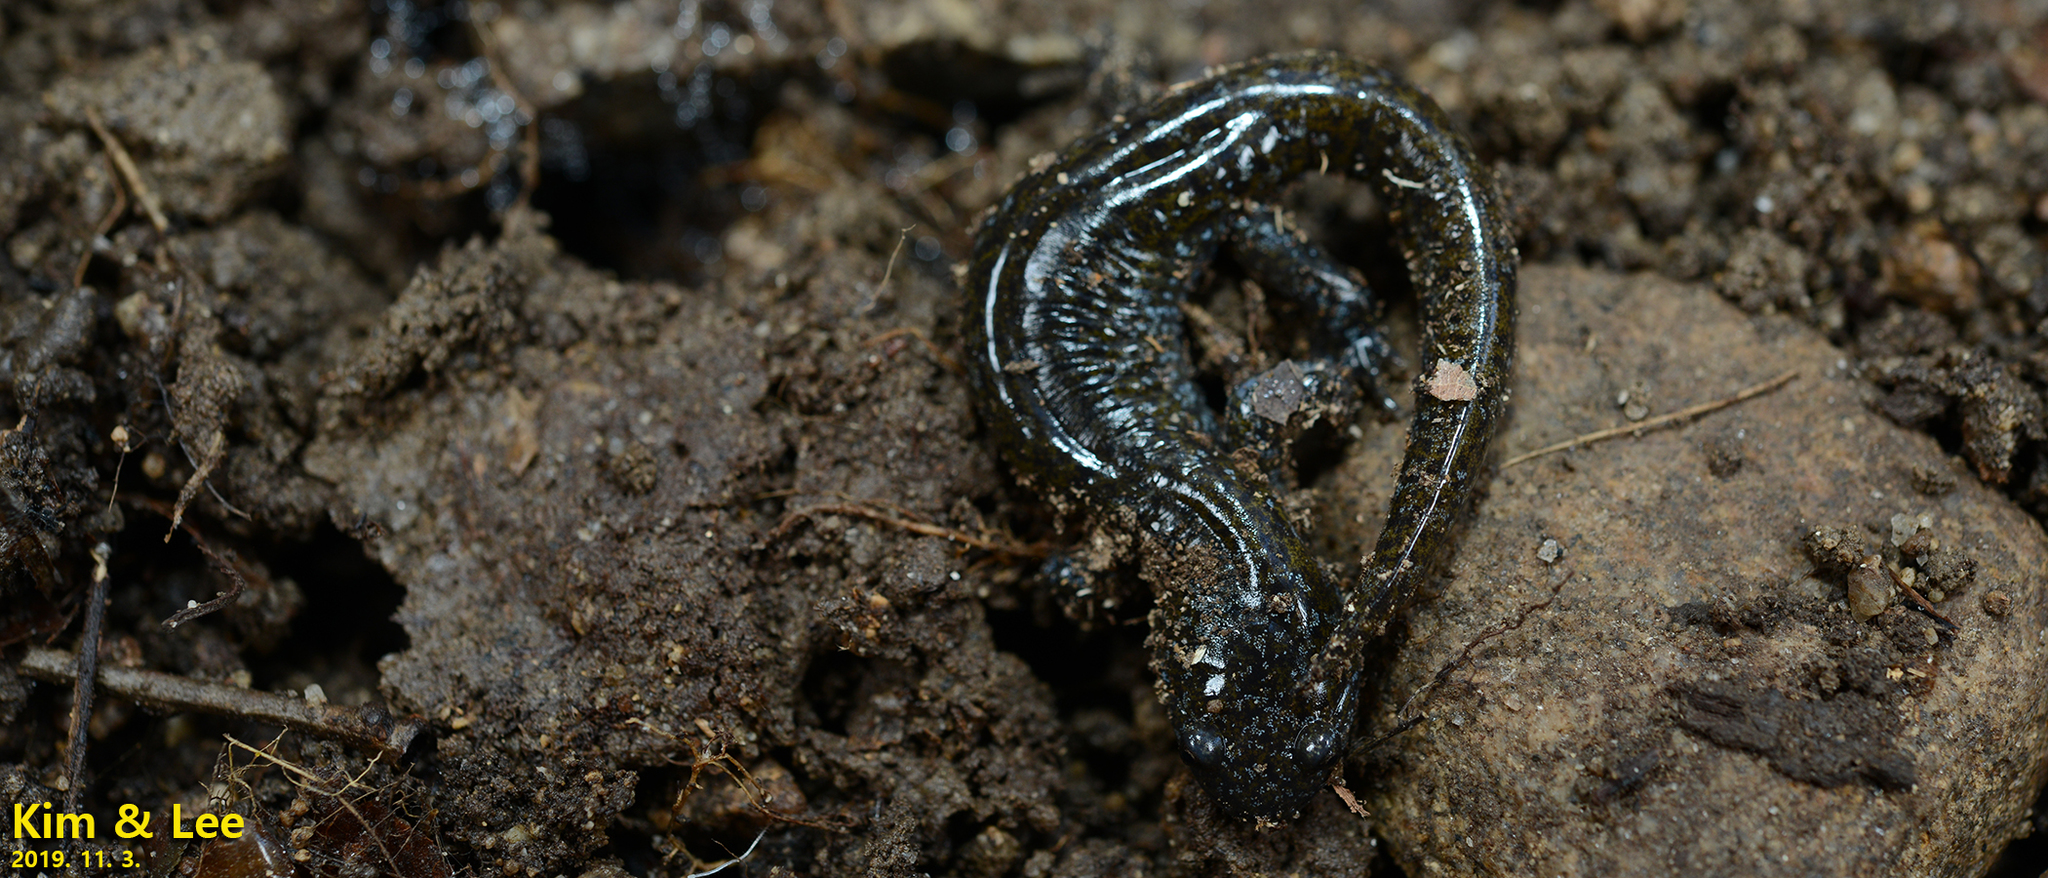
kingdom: Animalia
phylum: Chordata
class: Amphibia
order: Caudata
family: Hynobiidae
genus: Hynobius
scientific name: Hynobius leechii
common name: Gensan salamander
